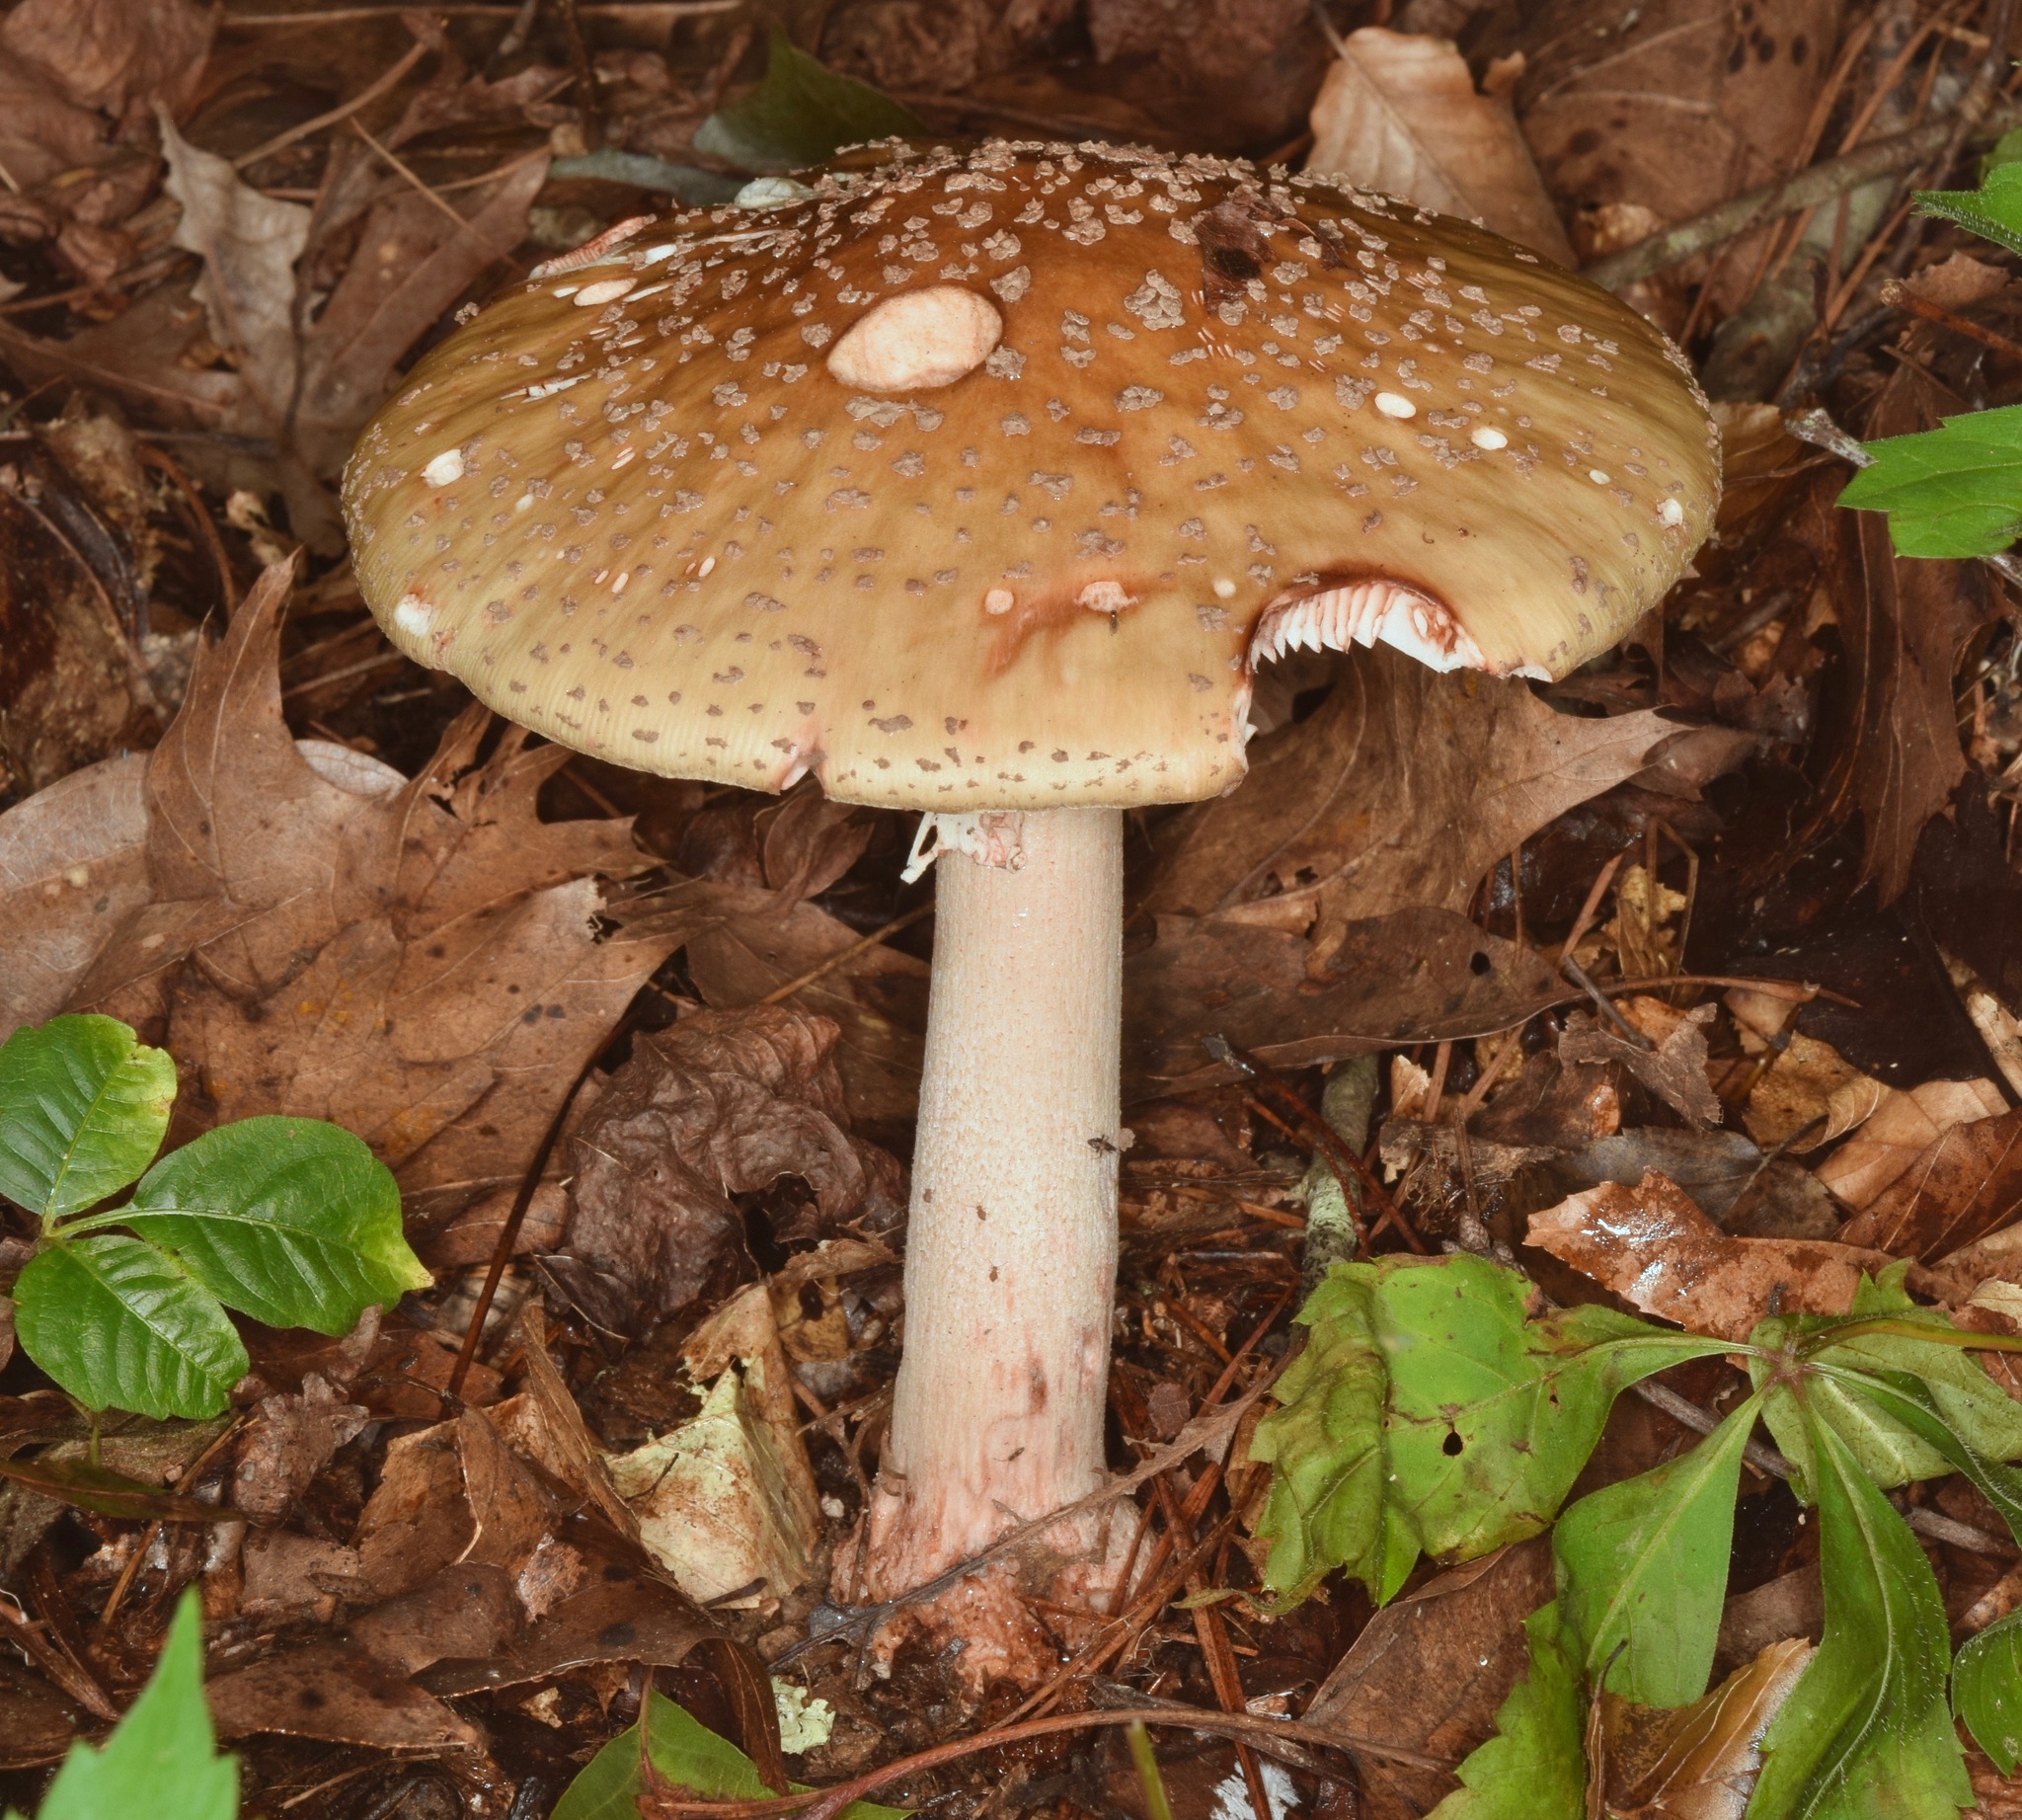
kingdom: Fungi
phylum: Basidiomycota
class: Agaricomycetes
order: Agaricales
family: Amanitaceae
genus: Amanita
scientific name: Amanita rubescens
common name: Blusher
